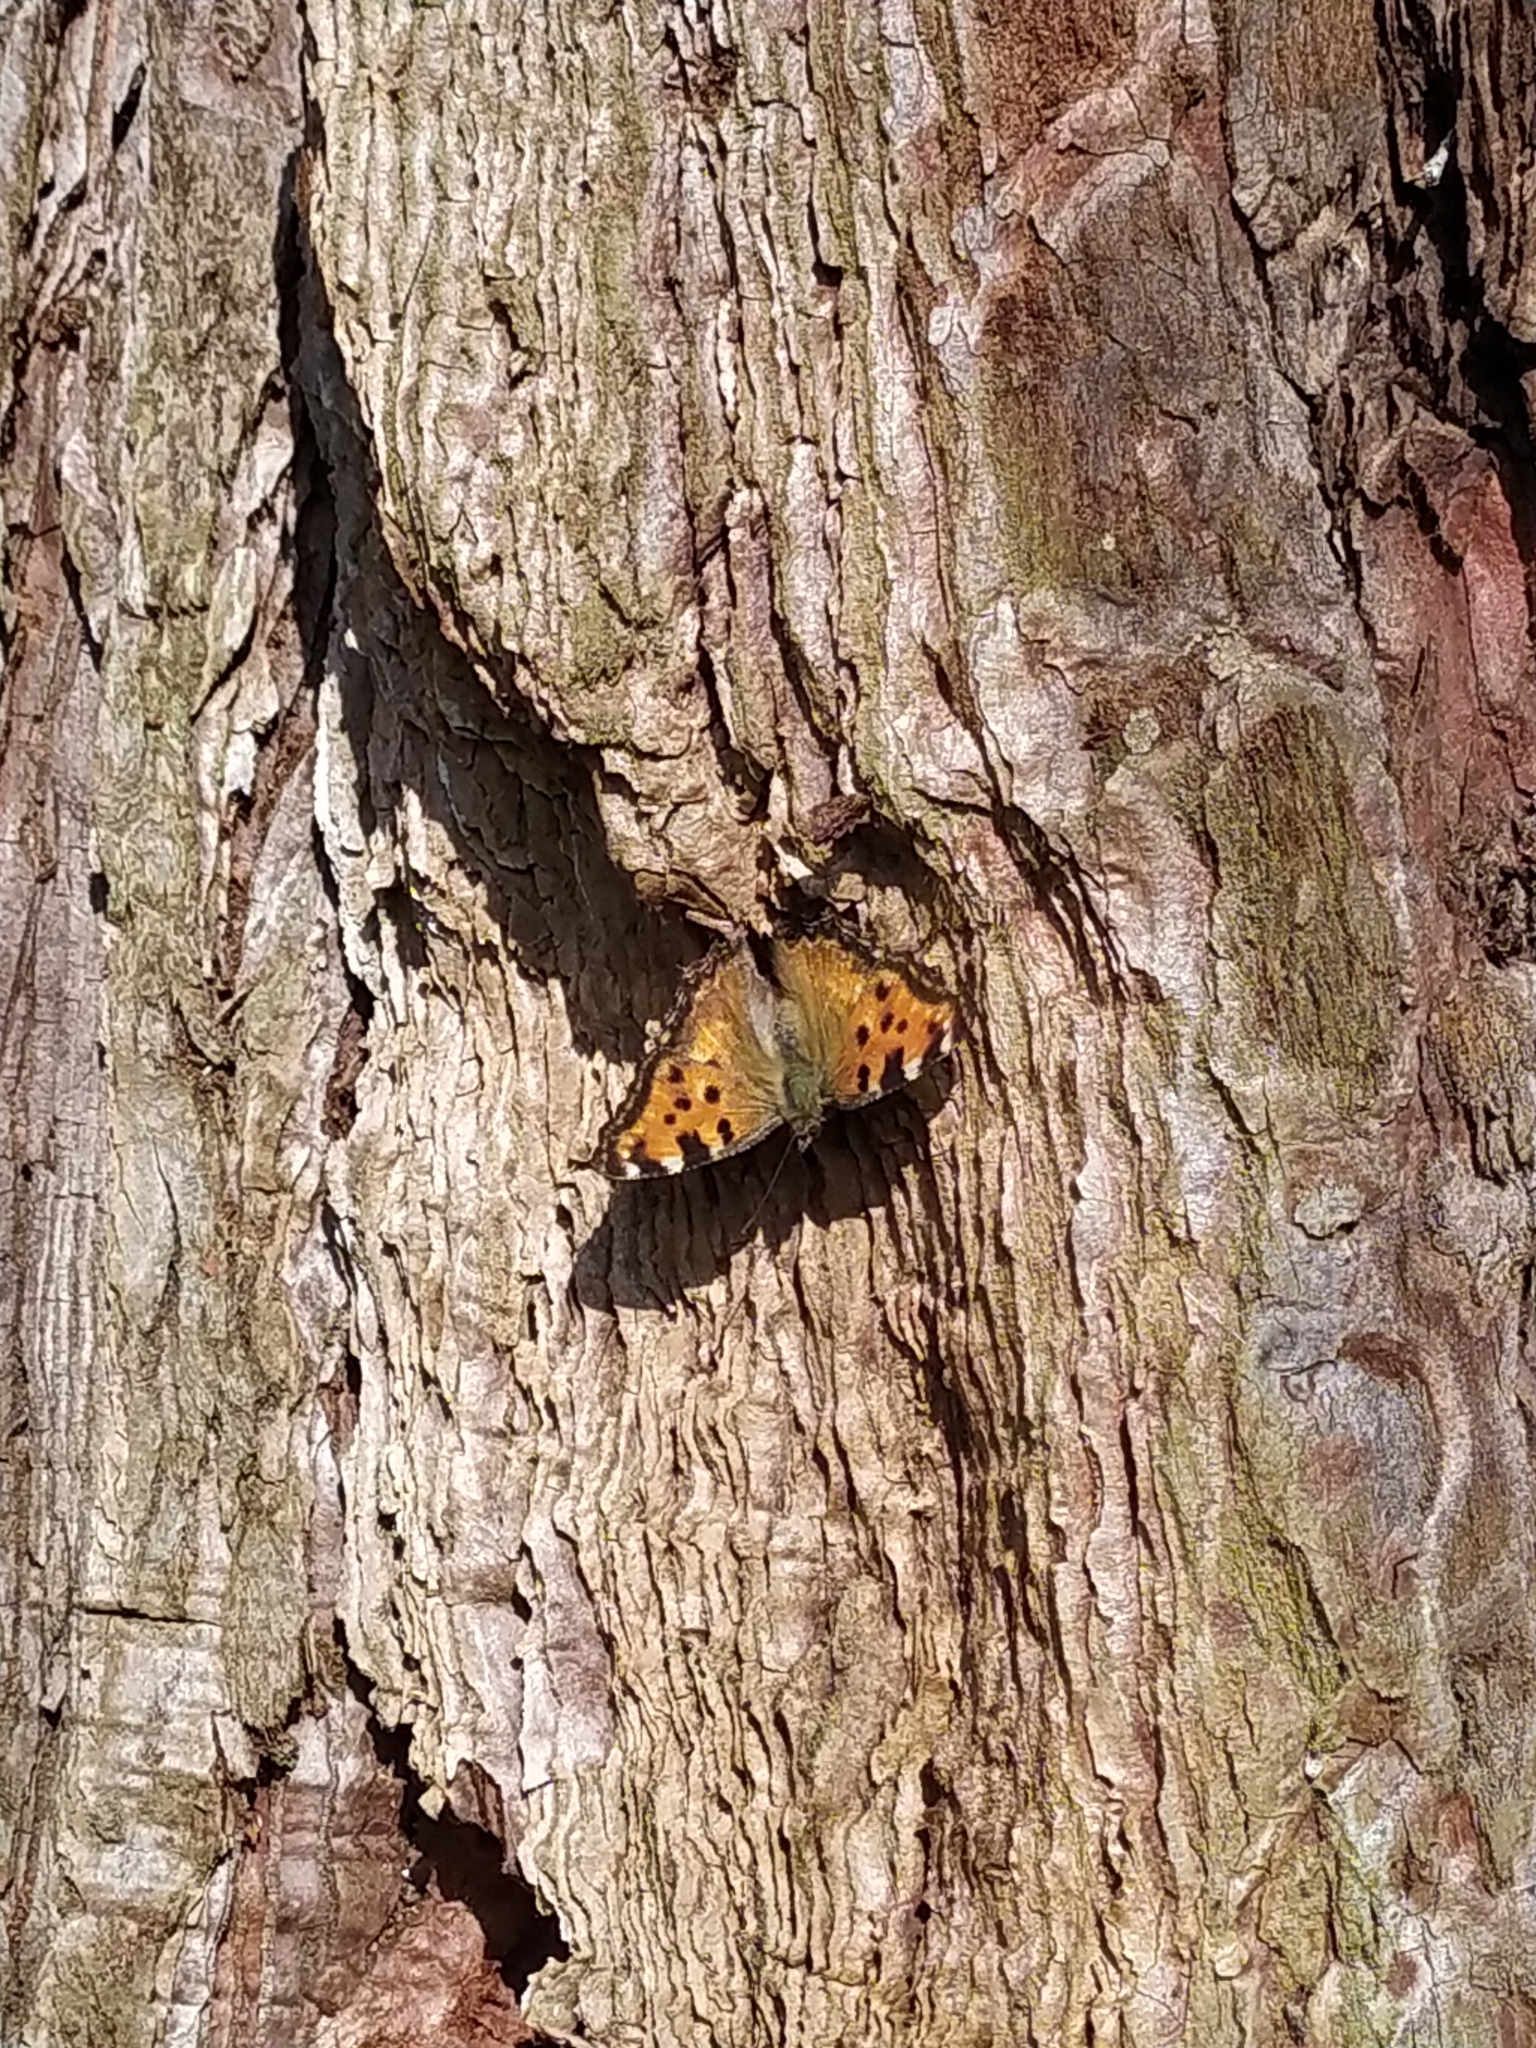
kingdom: Animalia
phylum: Arthropoda
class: Insecta
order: Lepidoptera
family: Nymphalidae
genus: Nymphalis
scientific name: Nymphalis polychloros
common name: Large tortoiseshell
